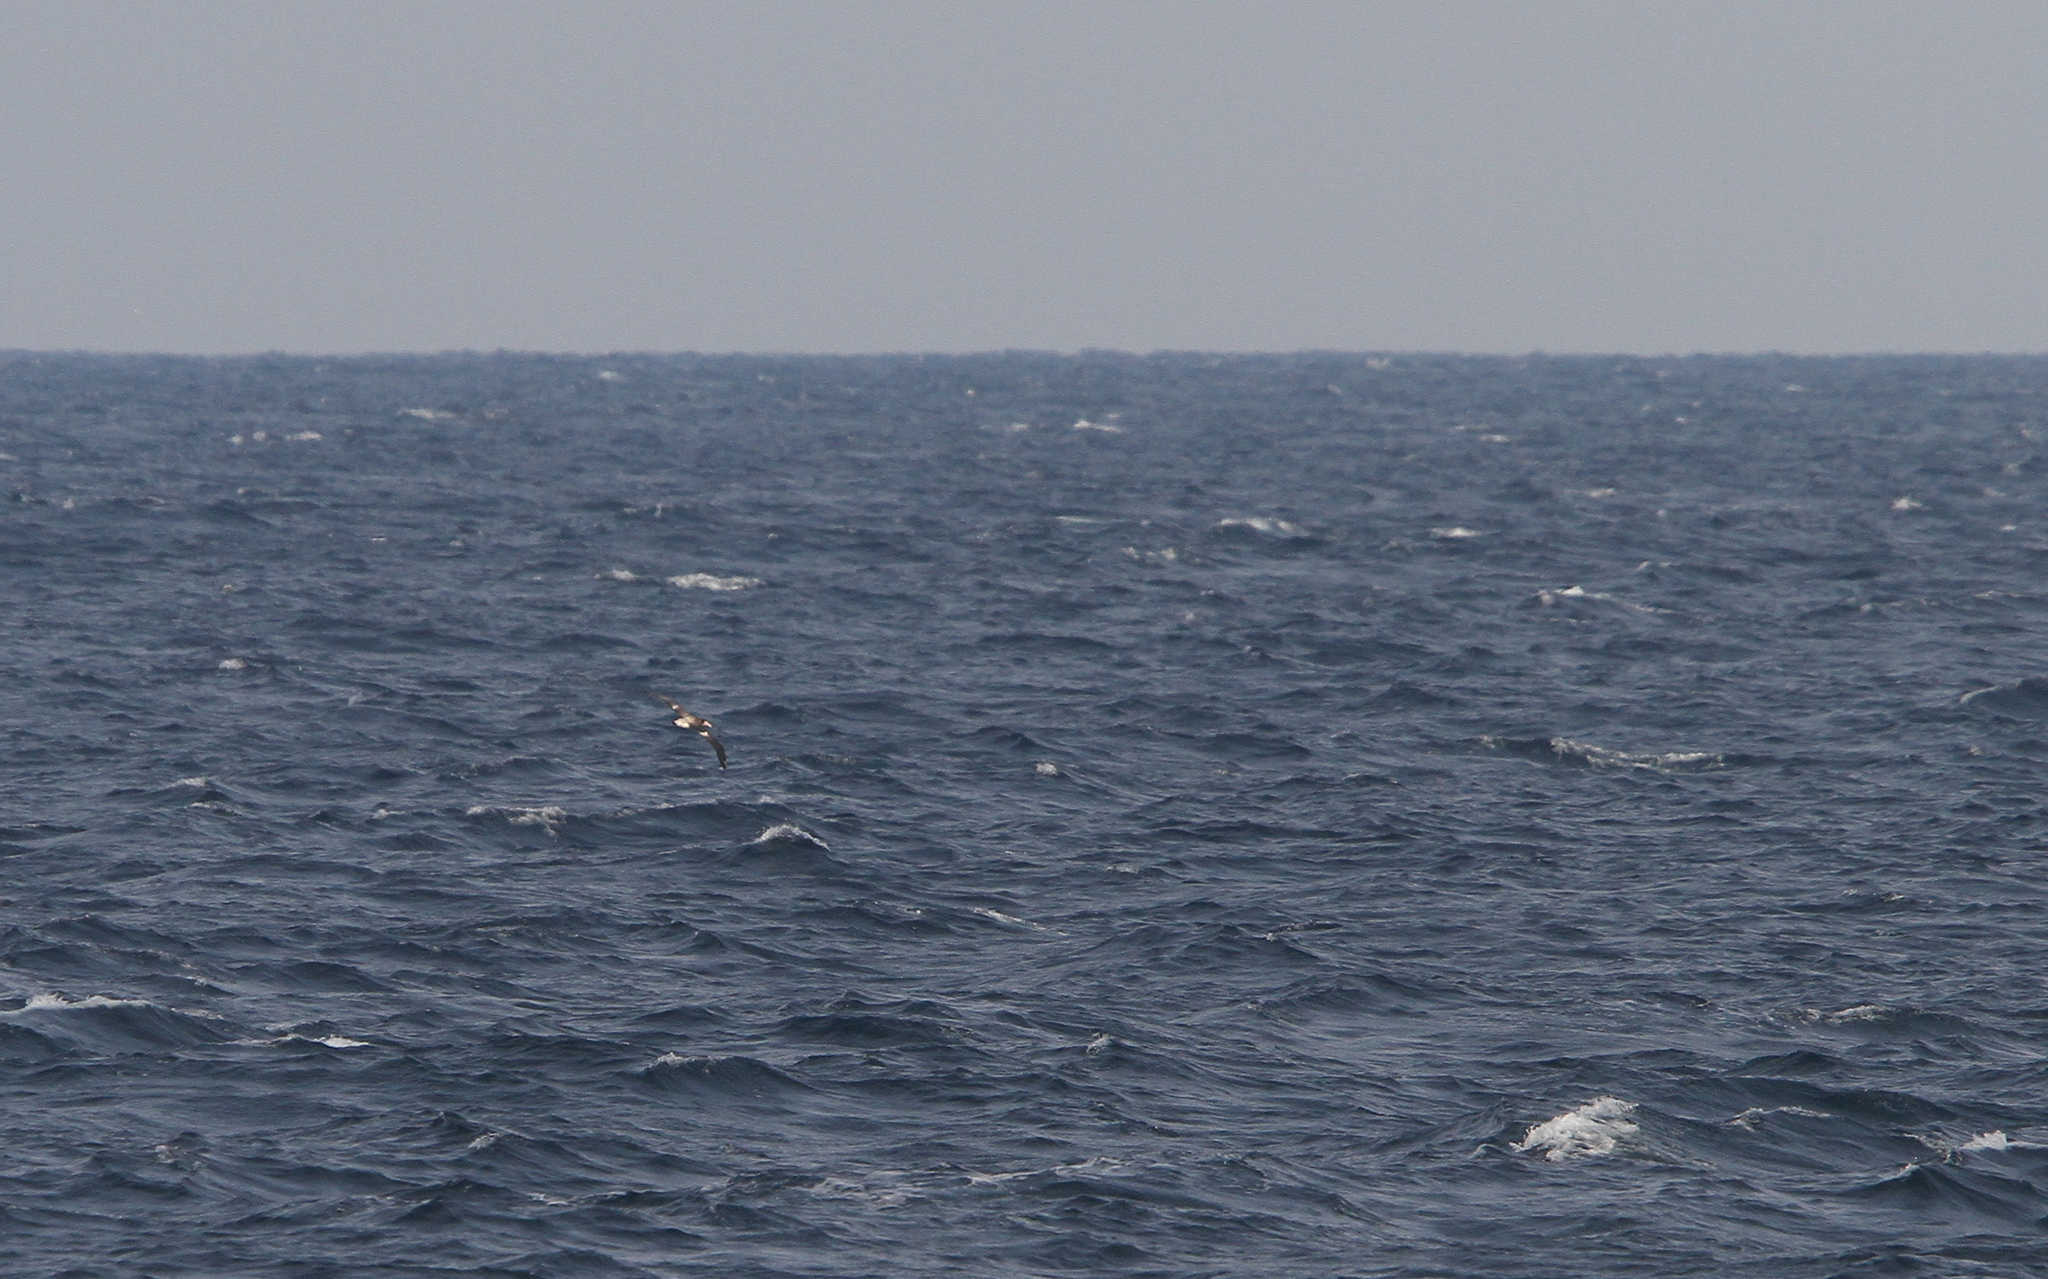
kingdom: Animalia
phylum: Chordata
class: Aves
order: Procellariiformes
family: Diomedeidae
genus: Phoebastria
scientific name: Phoebastria albatrus
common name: Short-tailed albatross
